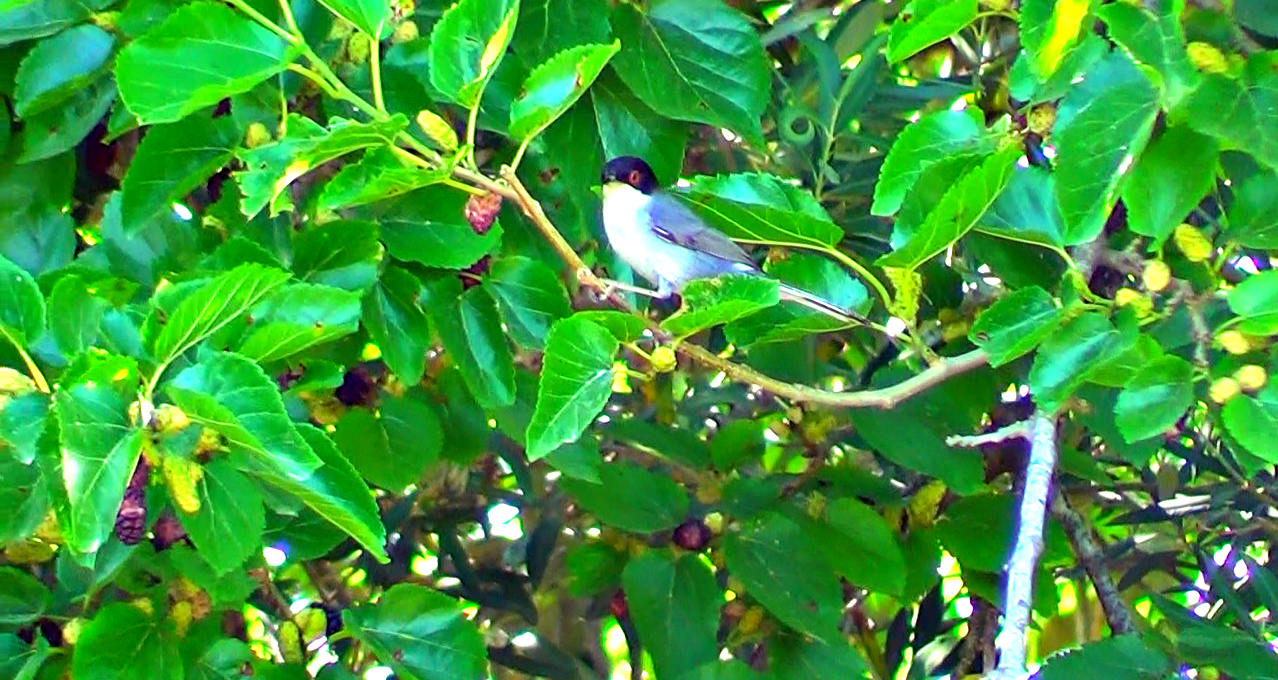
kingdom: Animalia
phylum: Chordata
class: Aves
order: Passeriformes
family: Sylviidae
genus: Curruca
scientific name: Curruca melanocephala
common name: Sardinian warbler
